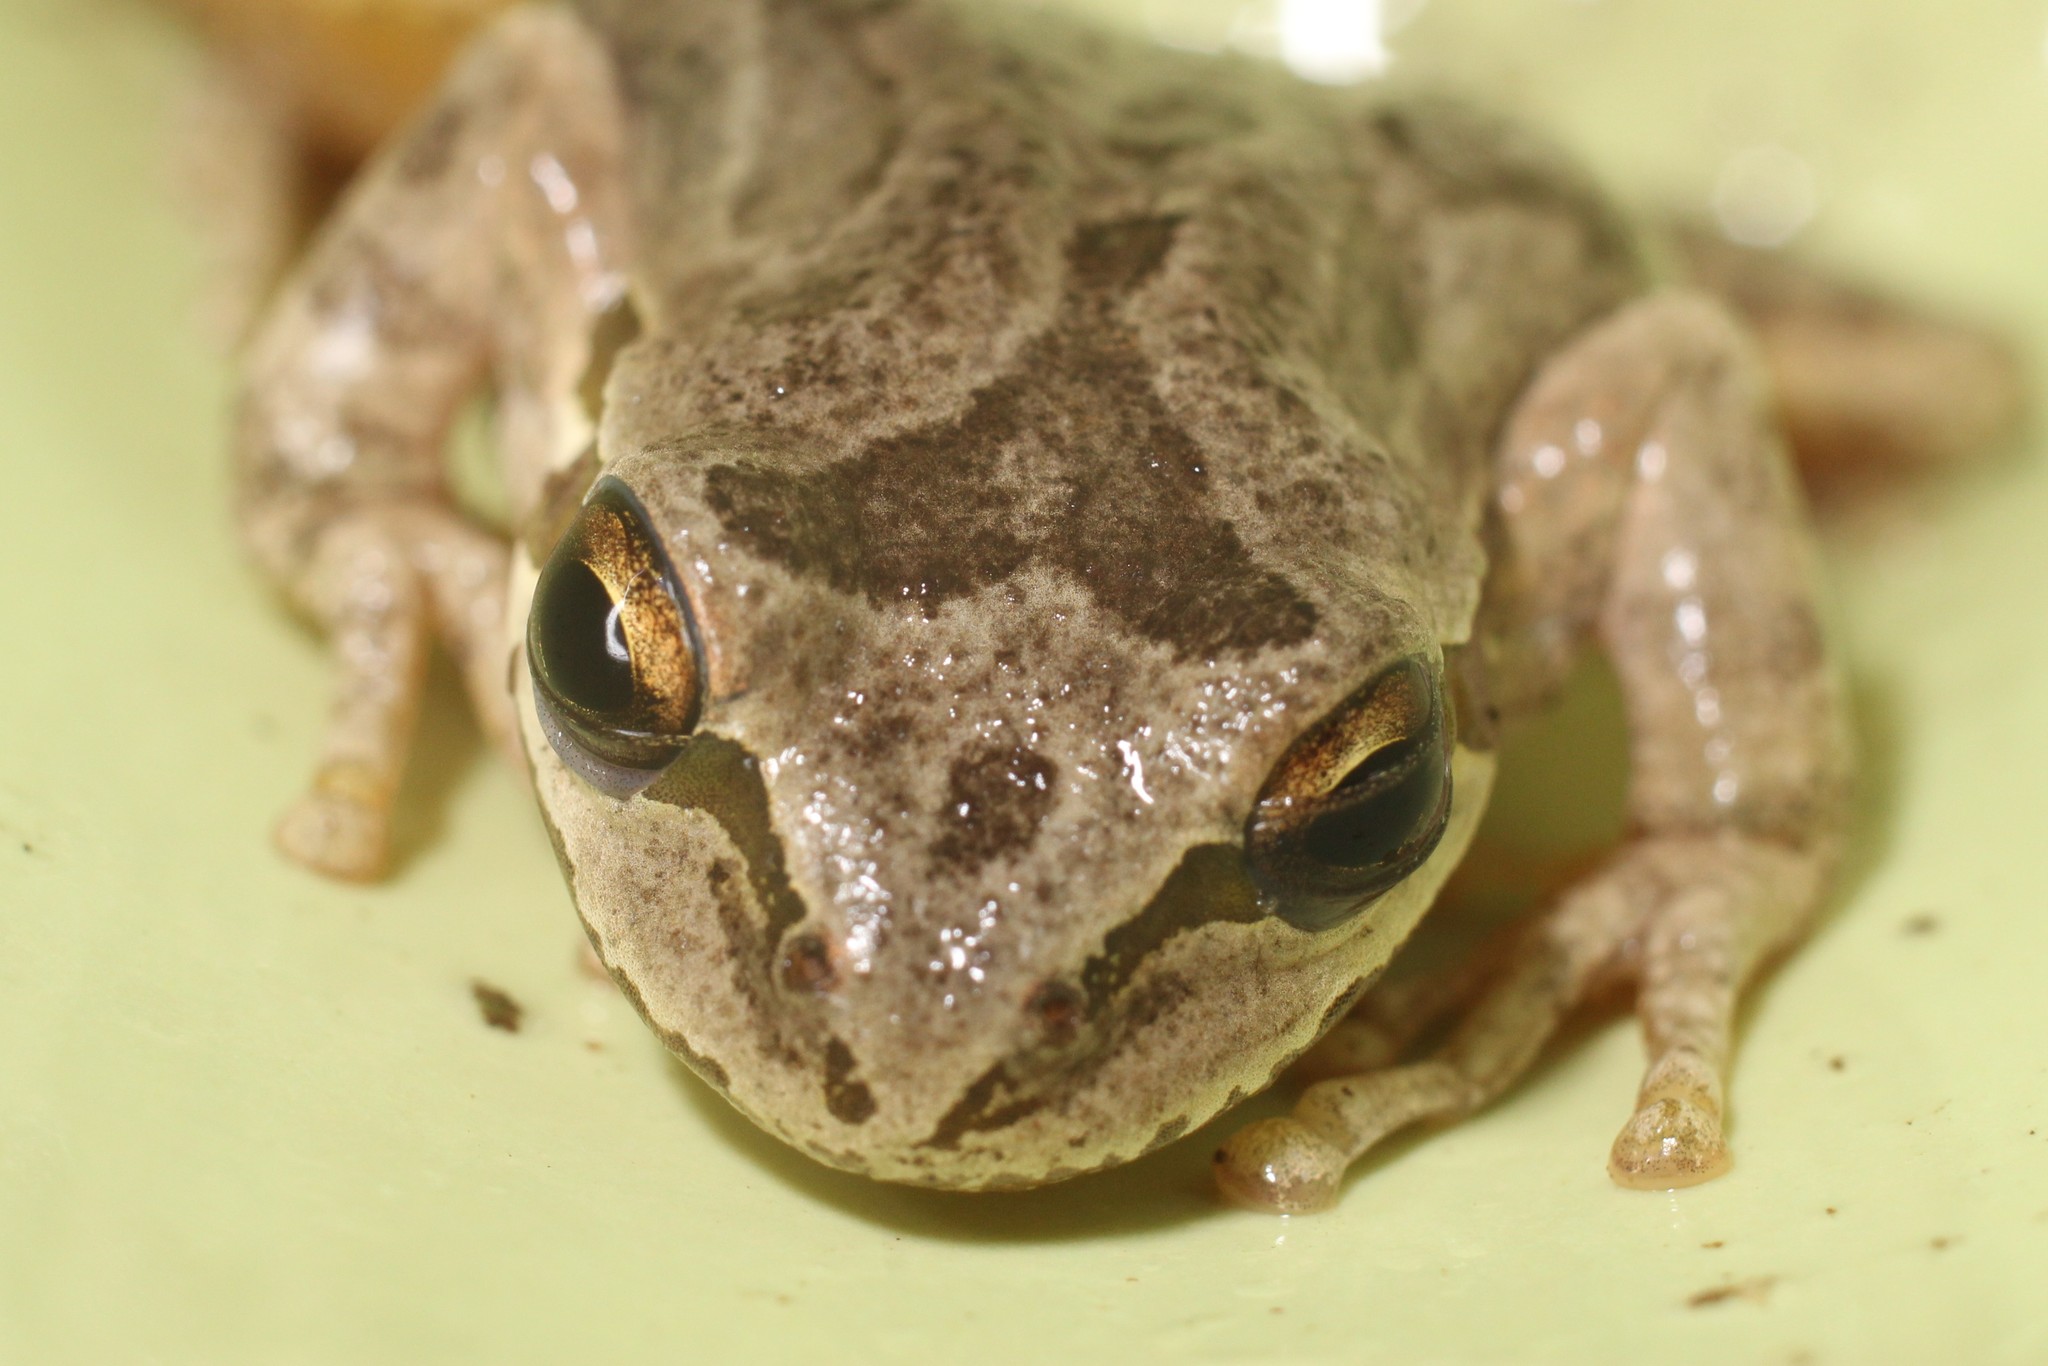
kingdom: Animalia
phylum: Chordata
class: Amphibia
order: Anura
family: Hylidae
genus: Pseudacris
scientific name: Pseudacris regilla
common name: Pacific chorus frog
